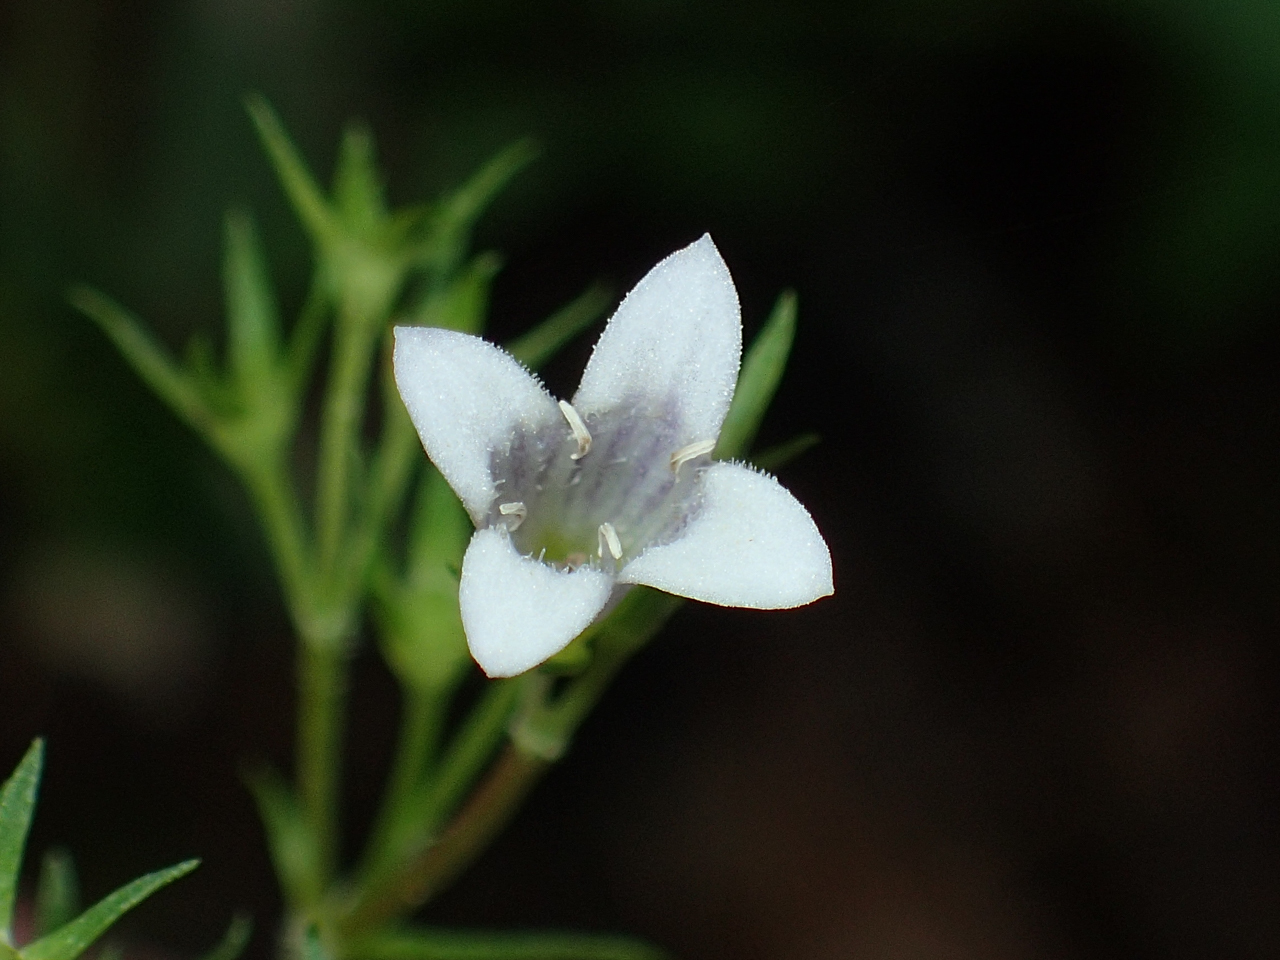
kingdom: Plantae
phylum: Tracheophyta
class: Magnoliopsida
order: Gentianales
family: Rubiaceae
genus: Houstonia
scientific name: Houstonia purpurea
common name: Summer bluet
